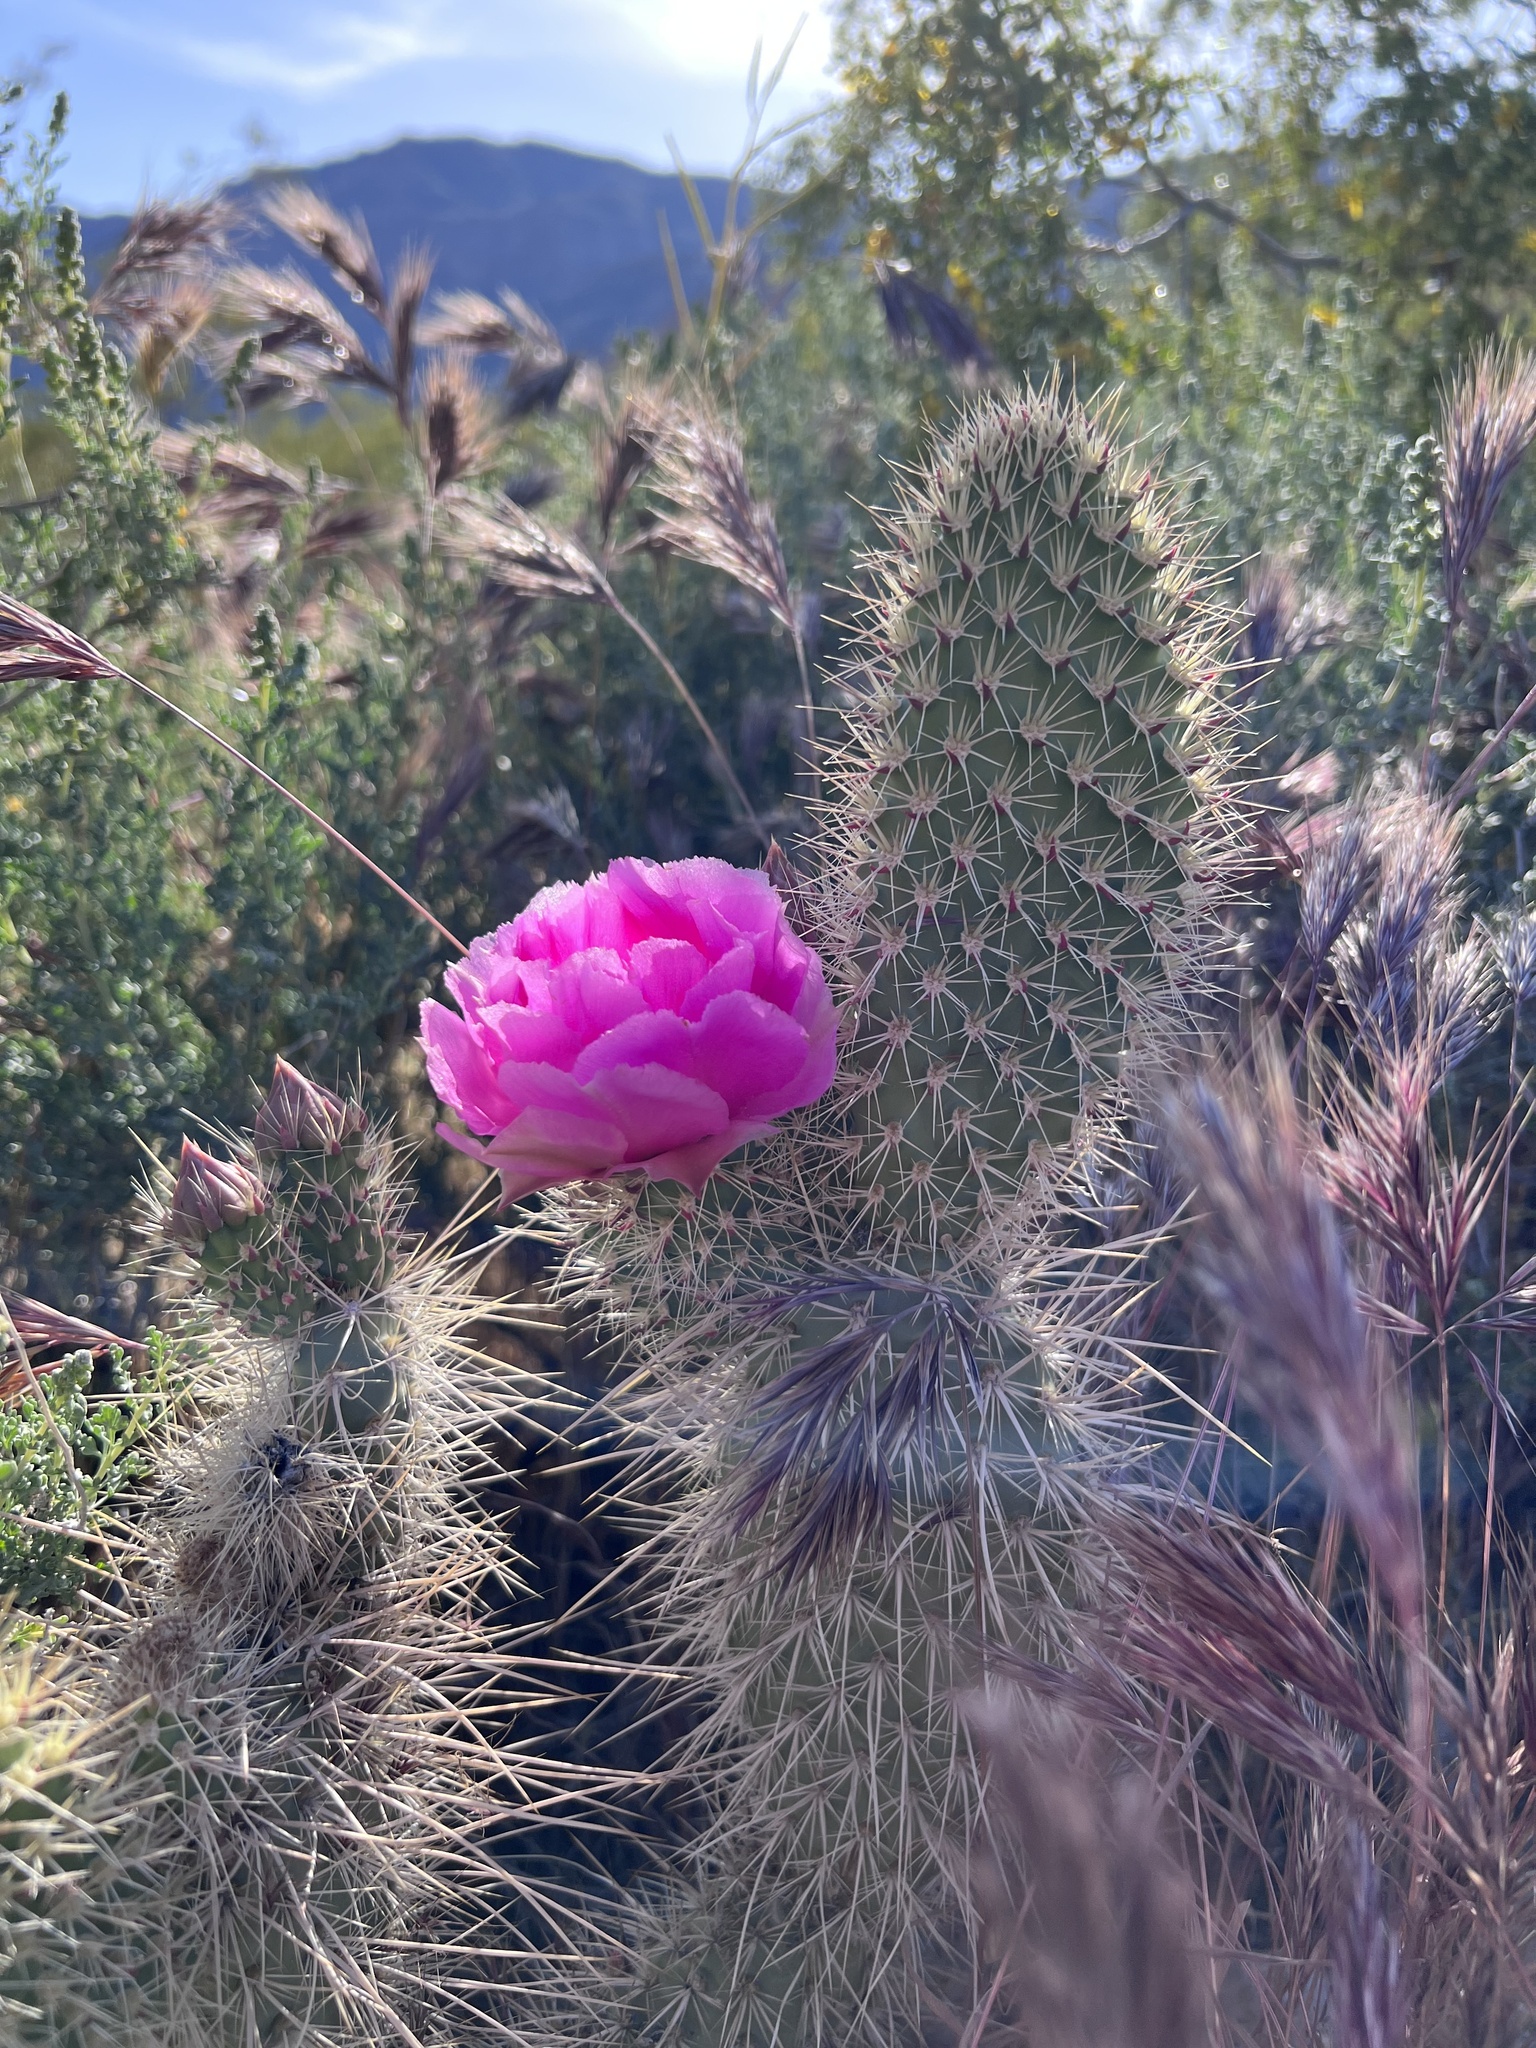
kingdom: Plantae
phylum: Tracheophyta
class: Magnoliopsida
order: Caryophyllales
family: Cactaceae
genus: Opuntia
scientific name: Opuntia polyacantha
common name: Plains prickly-pear
